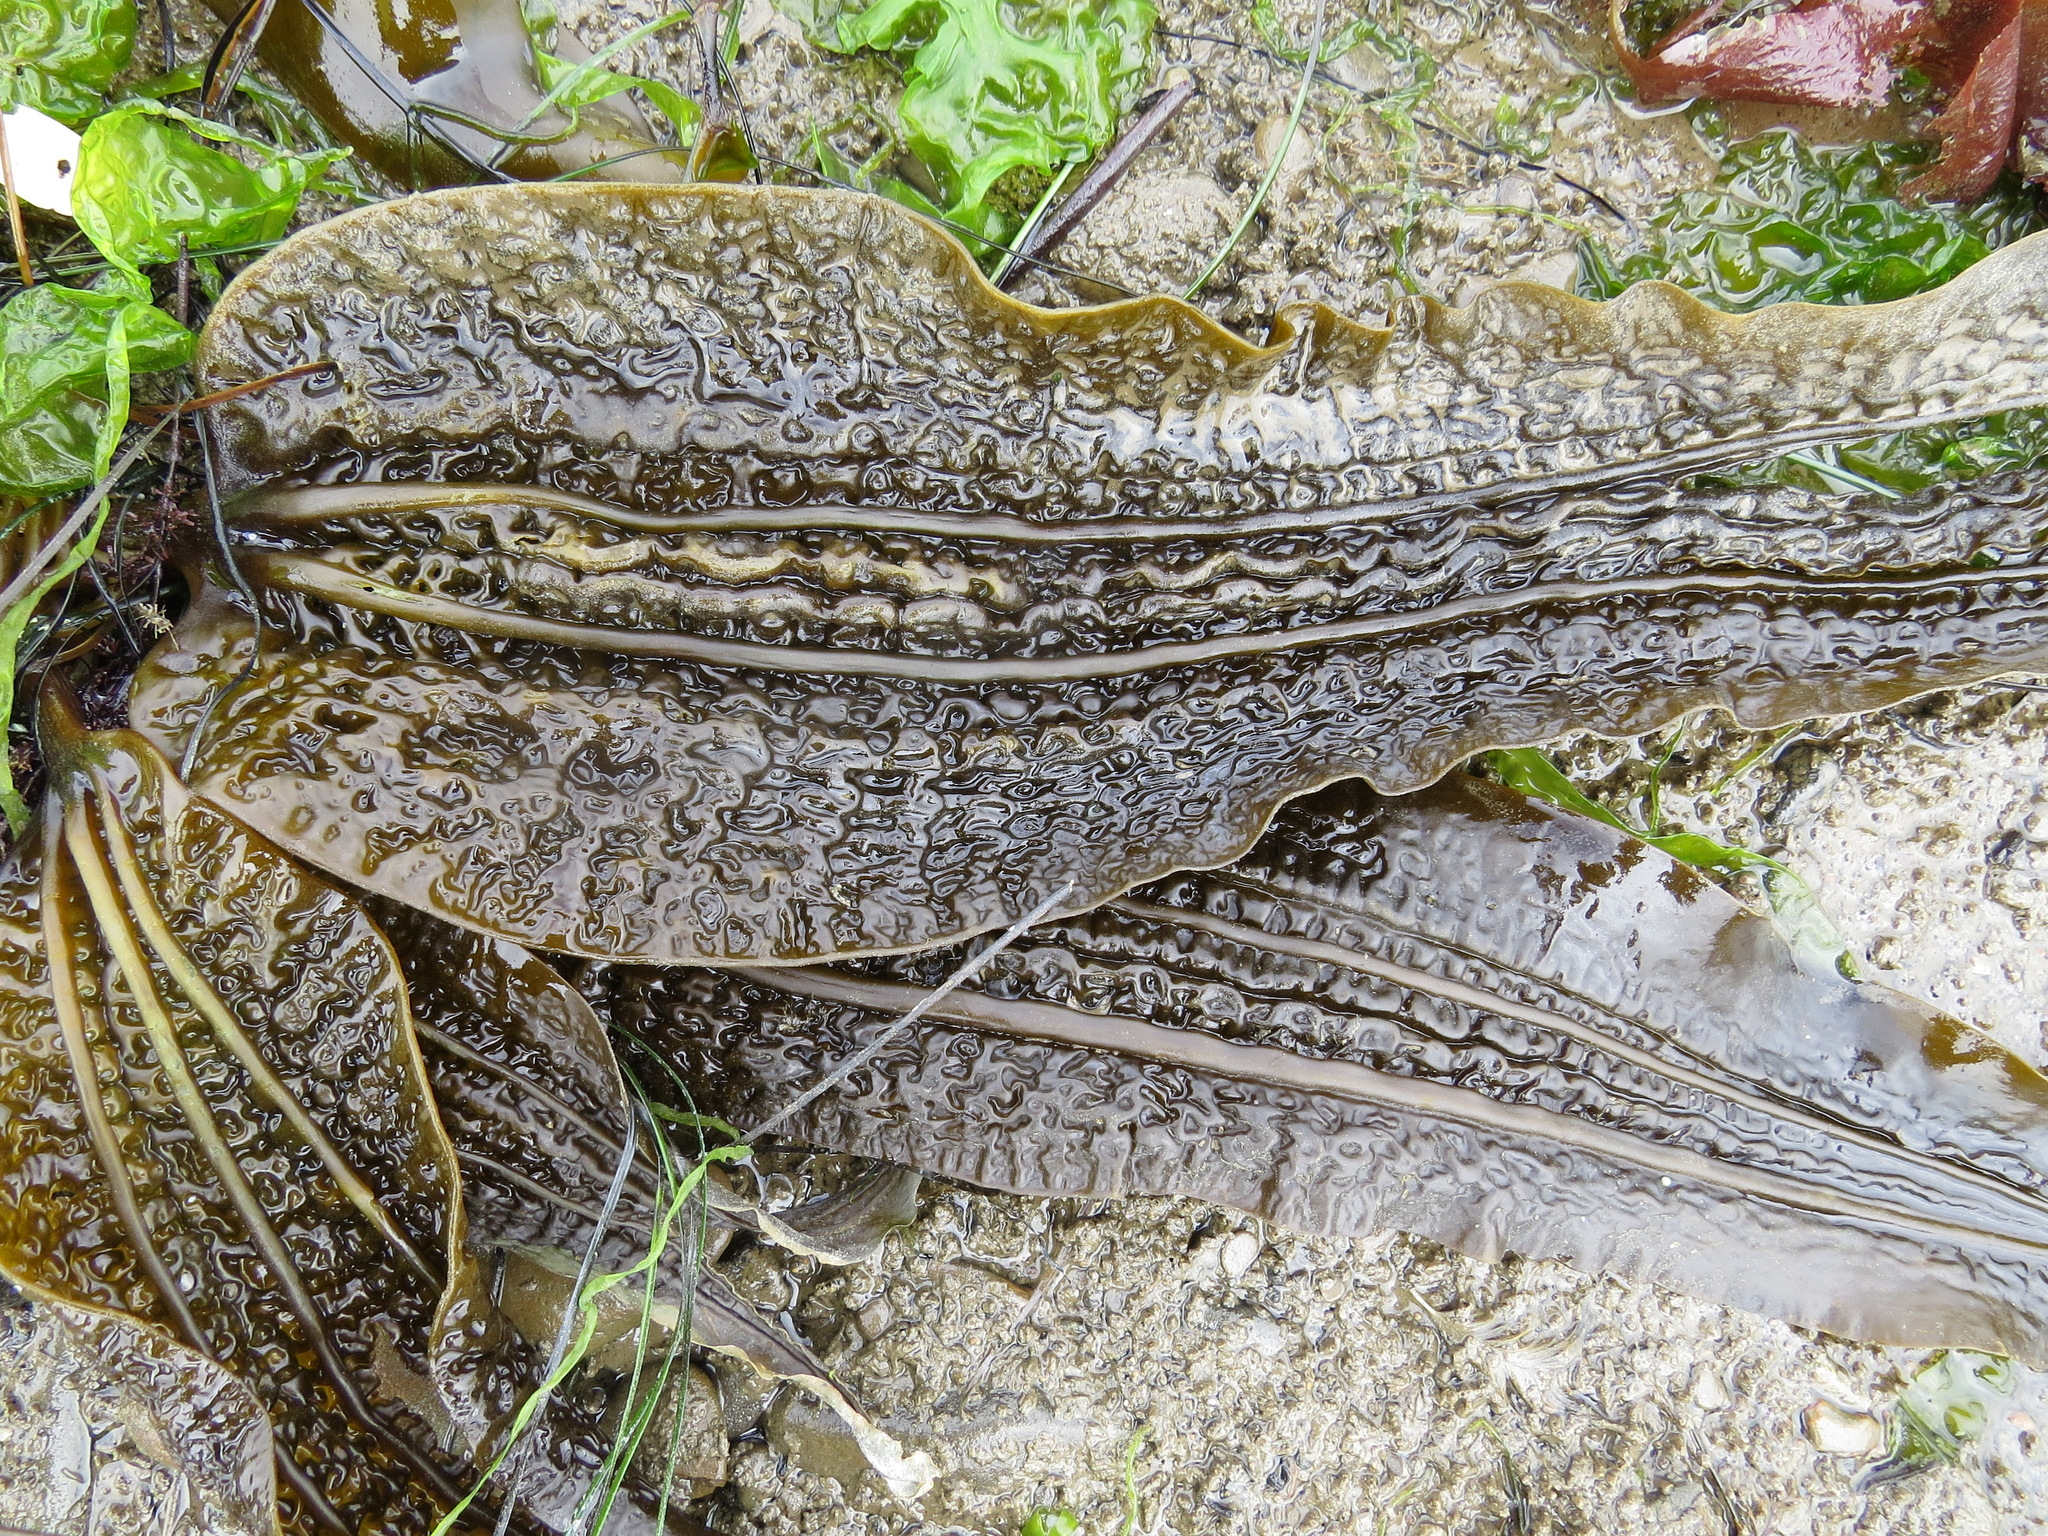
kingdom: Chromista
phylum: Ochrophyta
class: Phaeophyceae
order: Laminariales
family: Costariaceae
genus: Costaria
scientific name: Costaria costata
